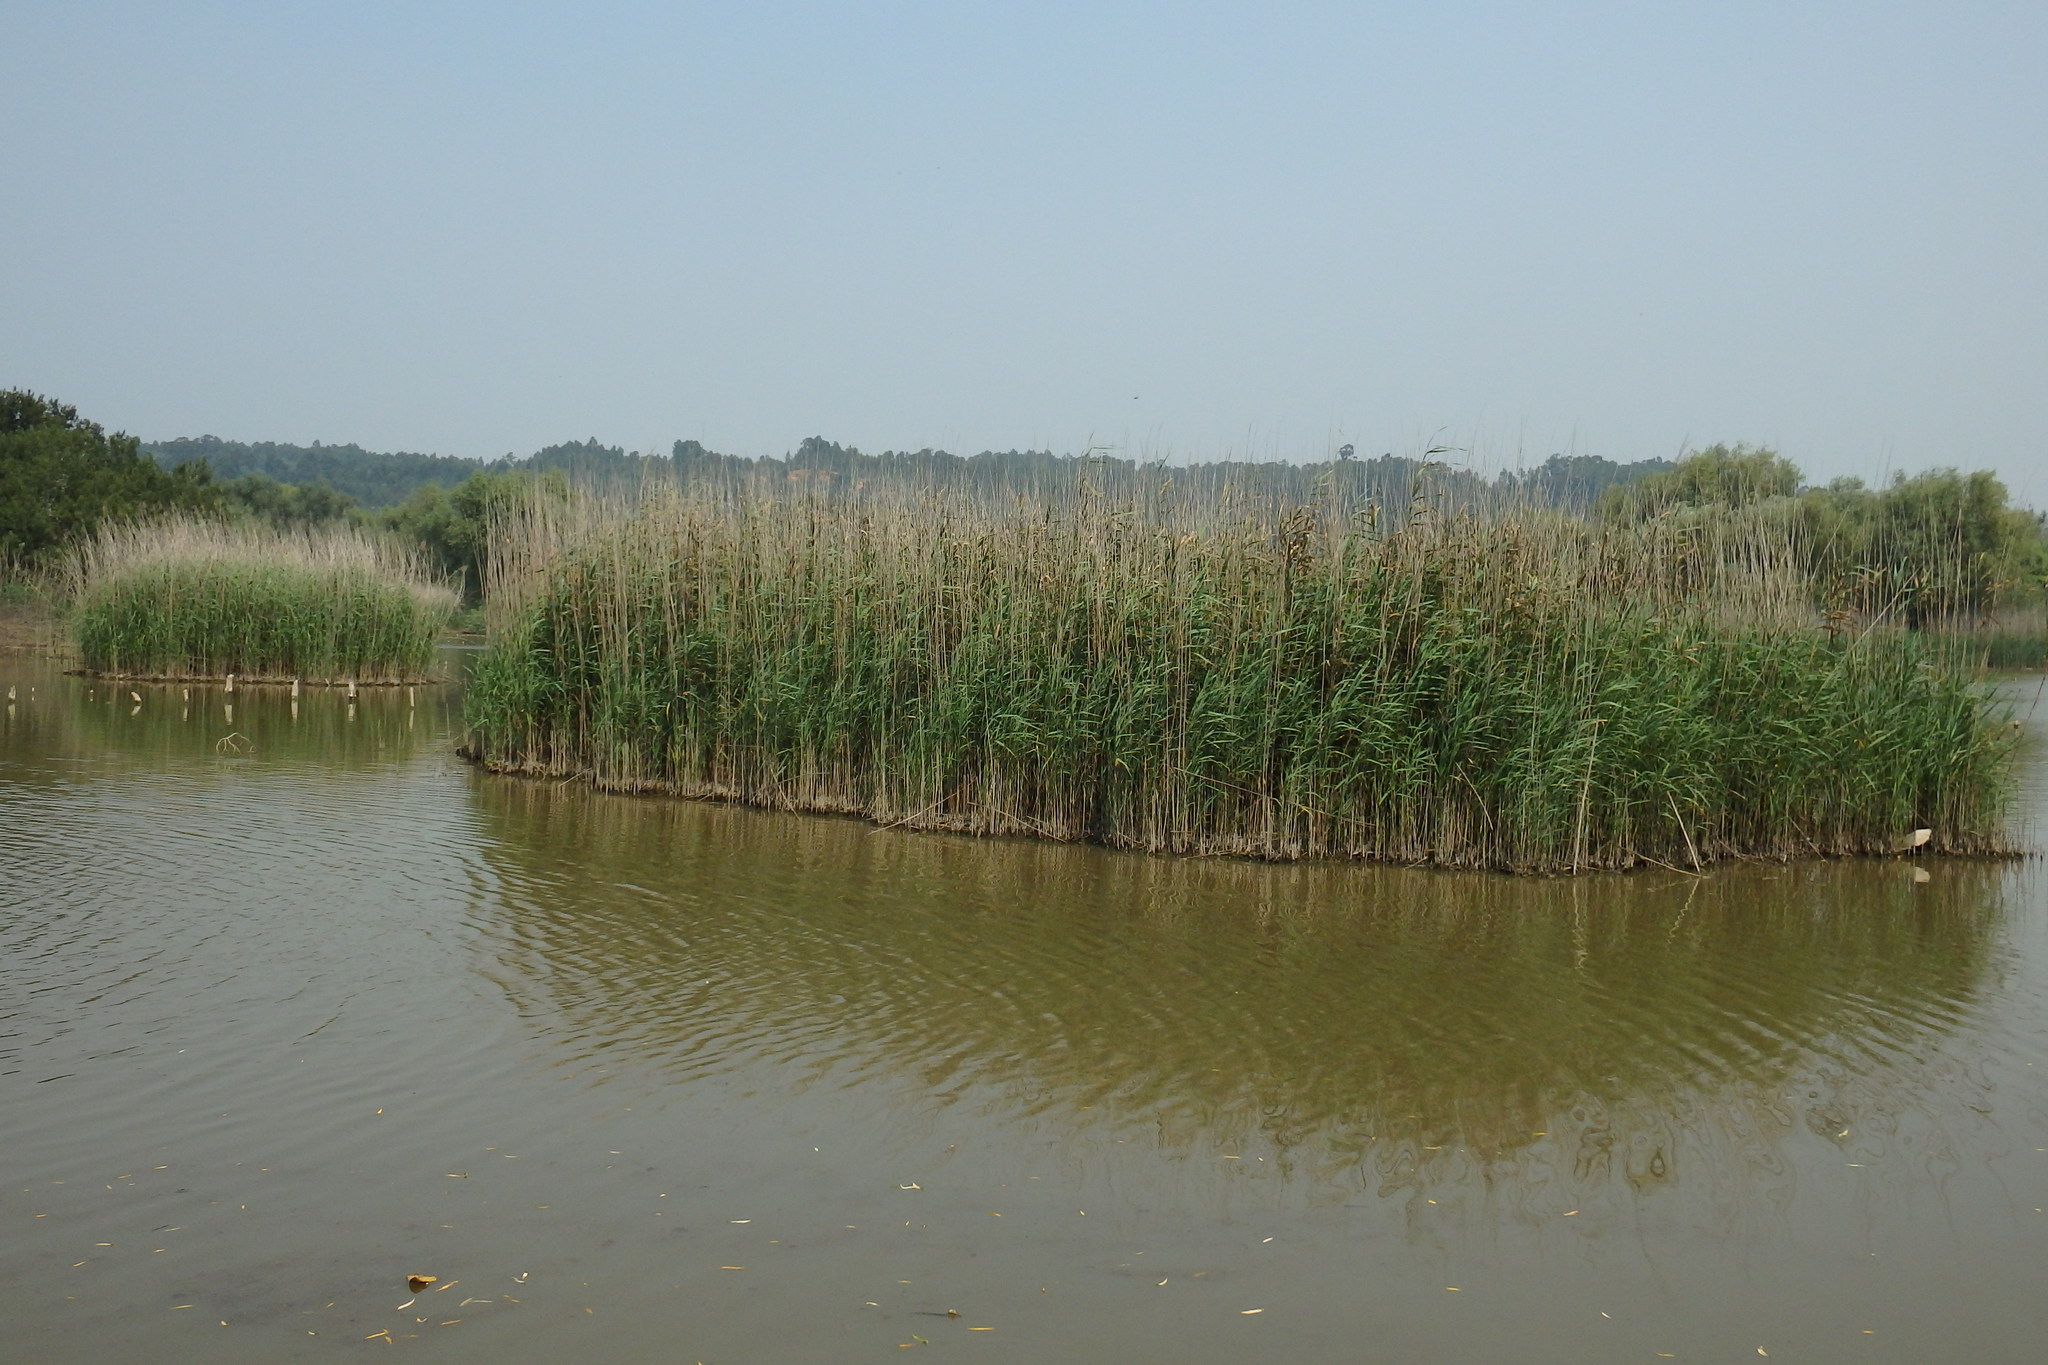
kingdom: Plantae
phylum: Tracheophyta
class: Liliopsida
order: Poales
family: Poaceae
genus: Phragmites
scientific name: Phragmites australis
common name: Common reed
